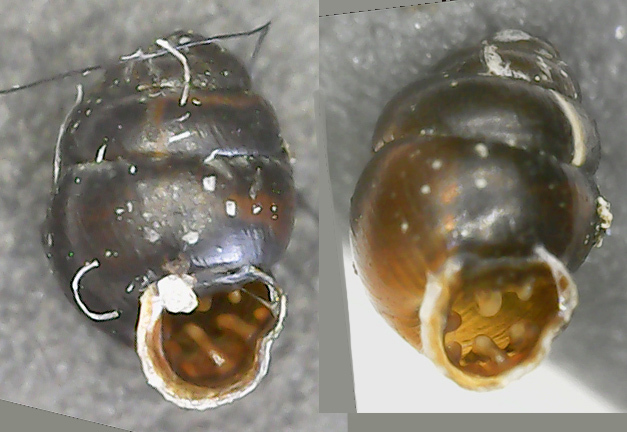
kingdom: Animalia
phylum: Mollusca
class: Gastropoda
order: Stylommatophora
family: Vertiginidae
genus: Vertigo
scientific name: Vertigo antivertigo
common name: Marsh whorl snail
